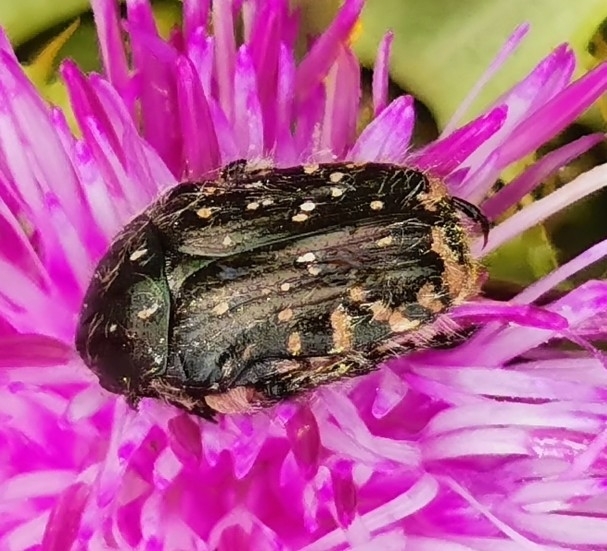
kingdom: Animalia
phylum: Arthropoda
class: Insecta
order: Coleoptera
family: Scarabaeidae
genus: Oxythyrea
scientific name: Oxythyrea funesta
